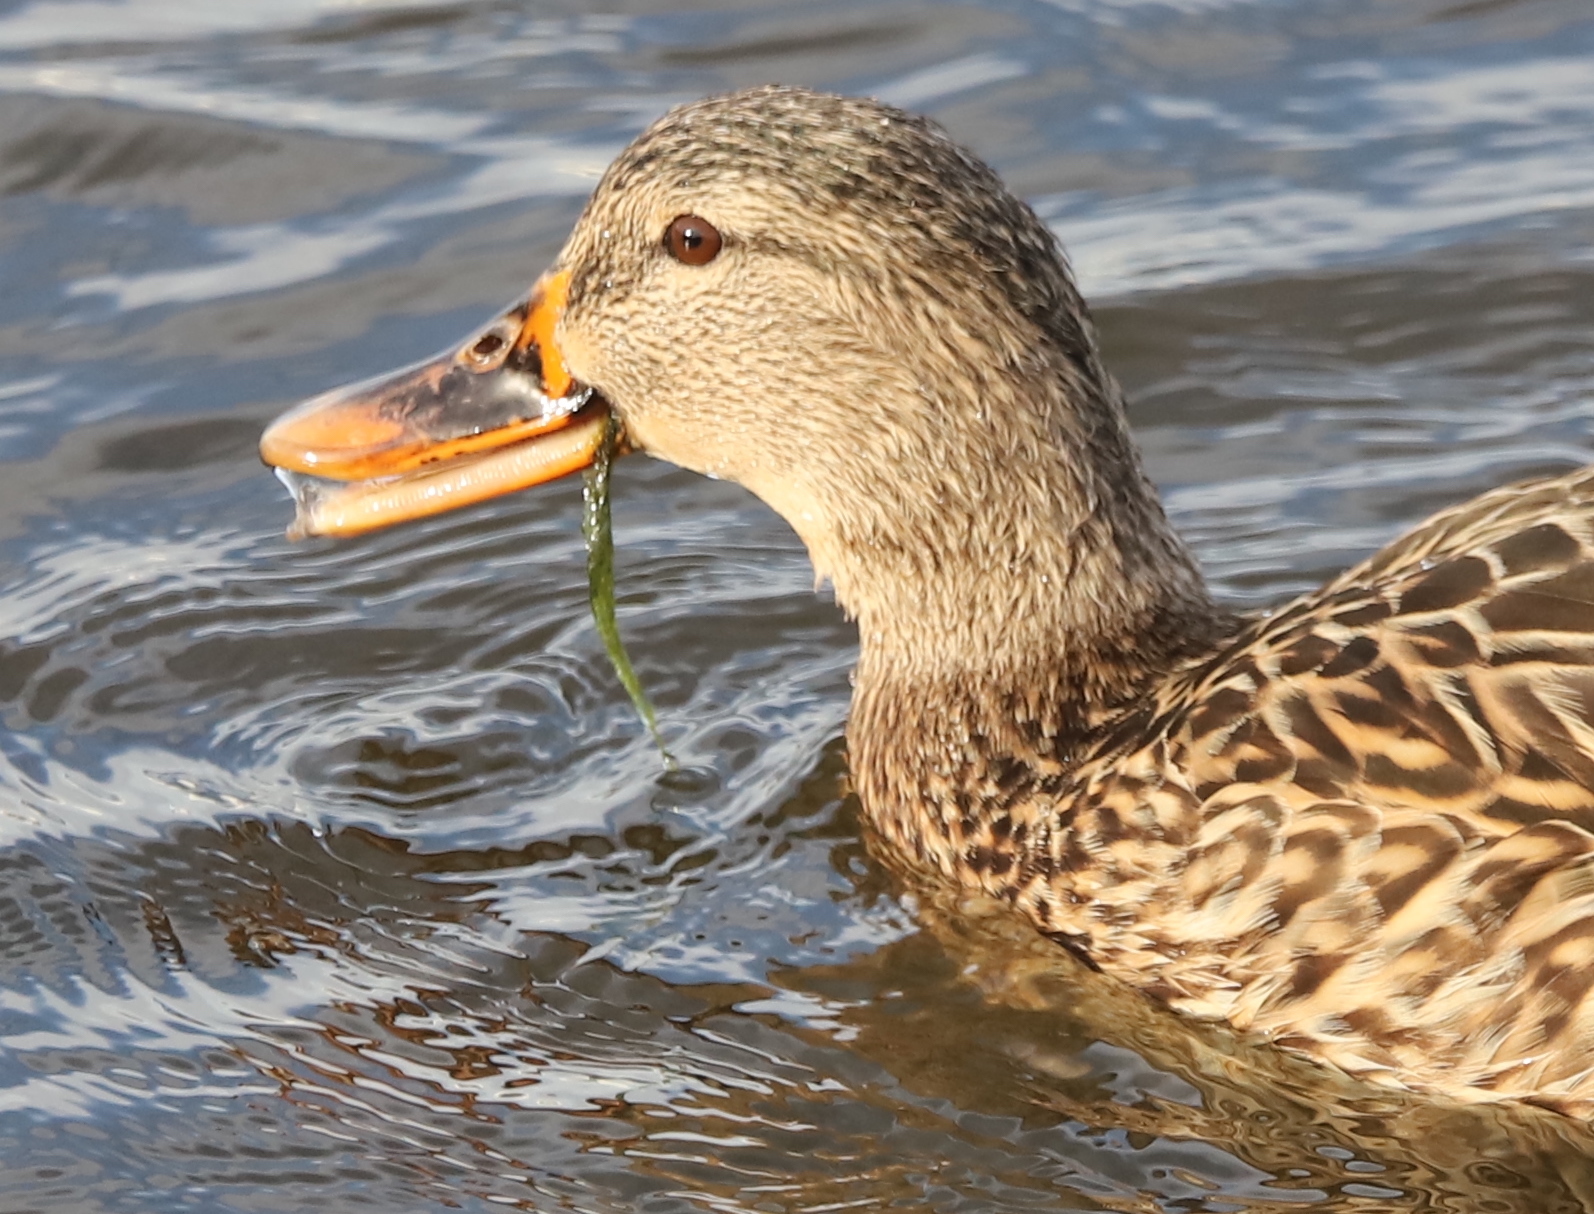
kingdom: Animalia
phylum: Chordata
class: Aves
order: Anseriformes
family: Anatidae
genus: Anas
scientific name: Anas platyrhynchos
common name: Mallard
